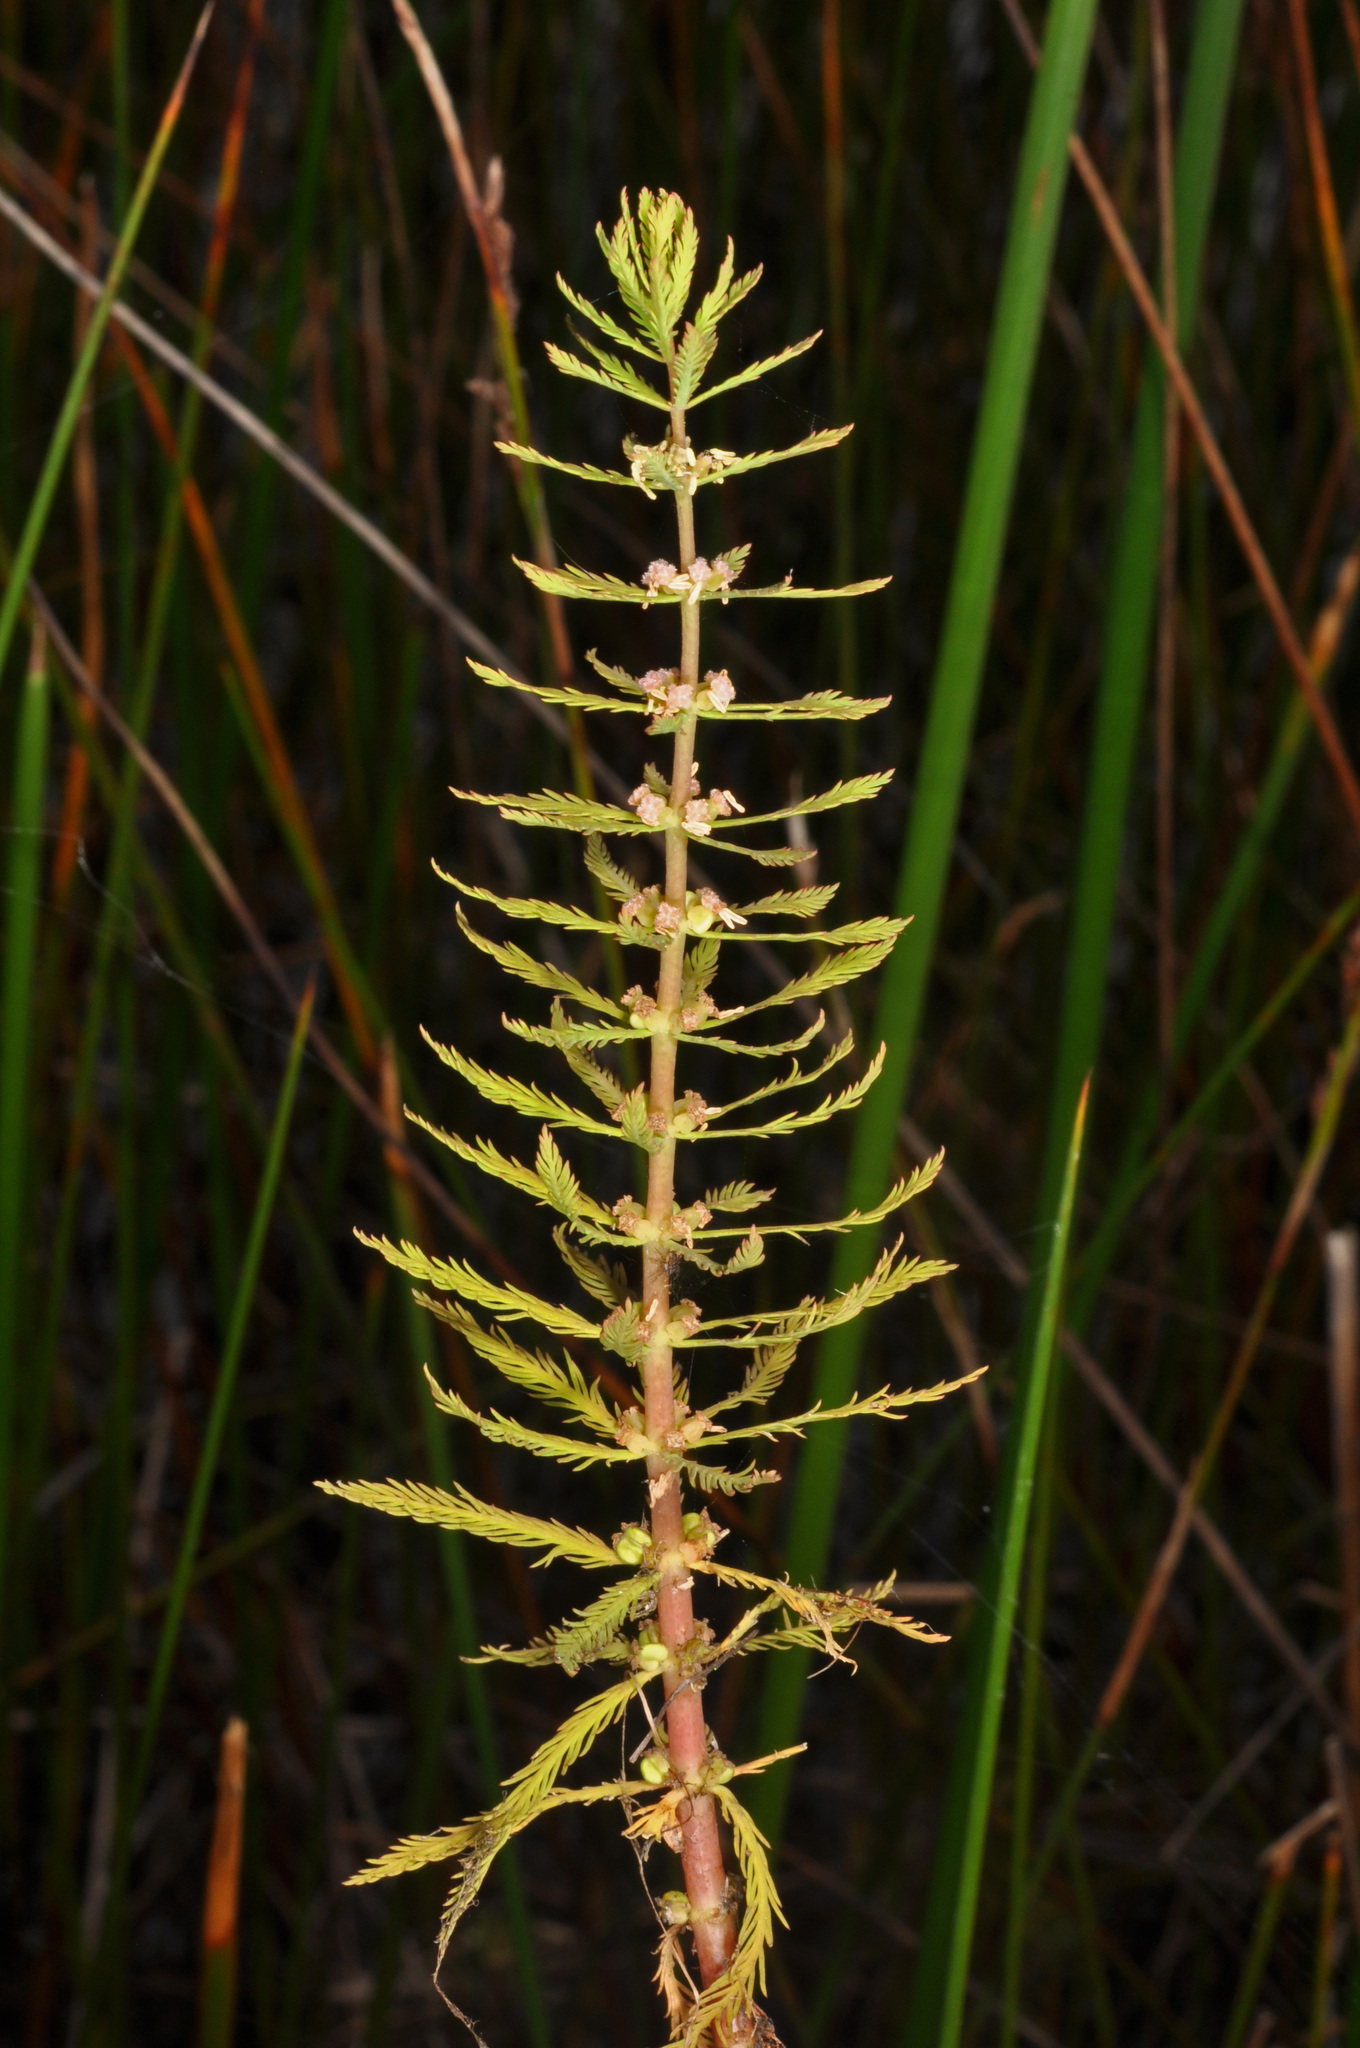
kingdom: Plantae
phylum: Tracheophyta
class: Magnoliopsida
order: Saxifragales
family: Haloragaceae
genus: Myriophyllum
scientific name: Myriophyllum robustum
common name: Stout water milfoil
